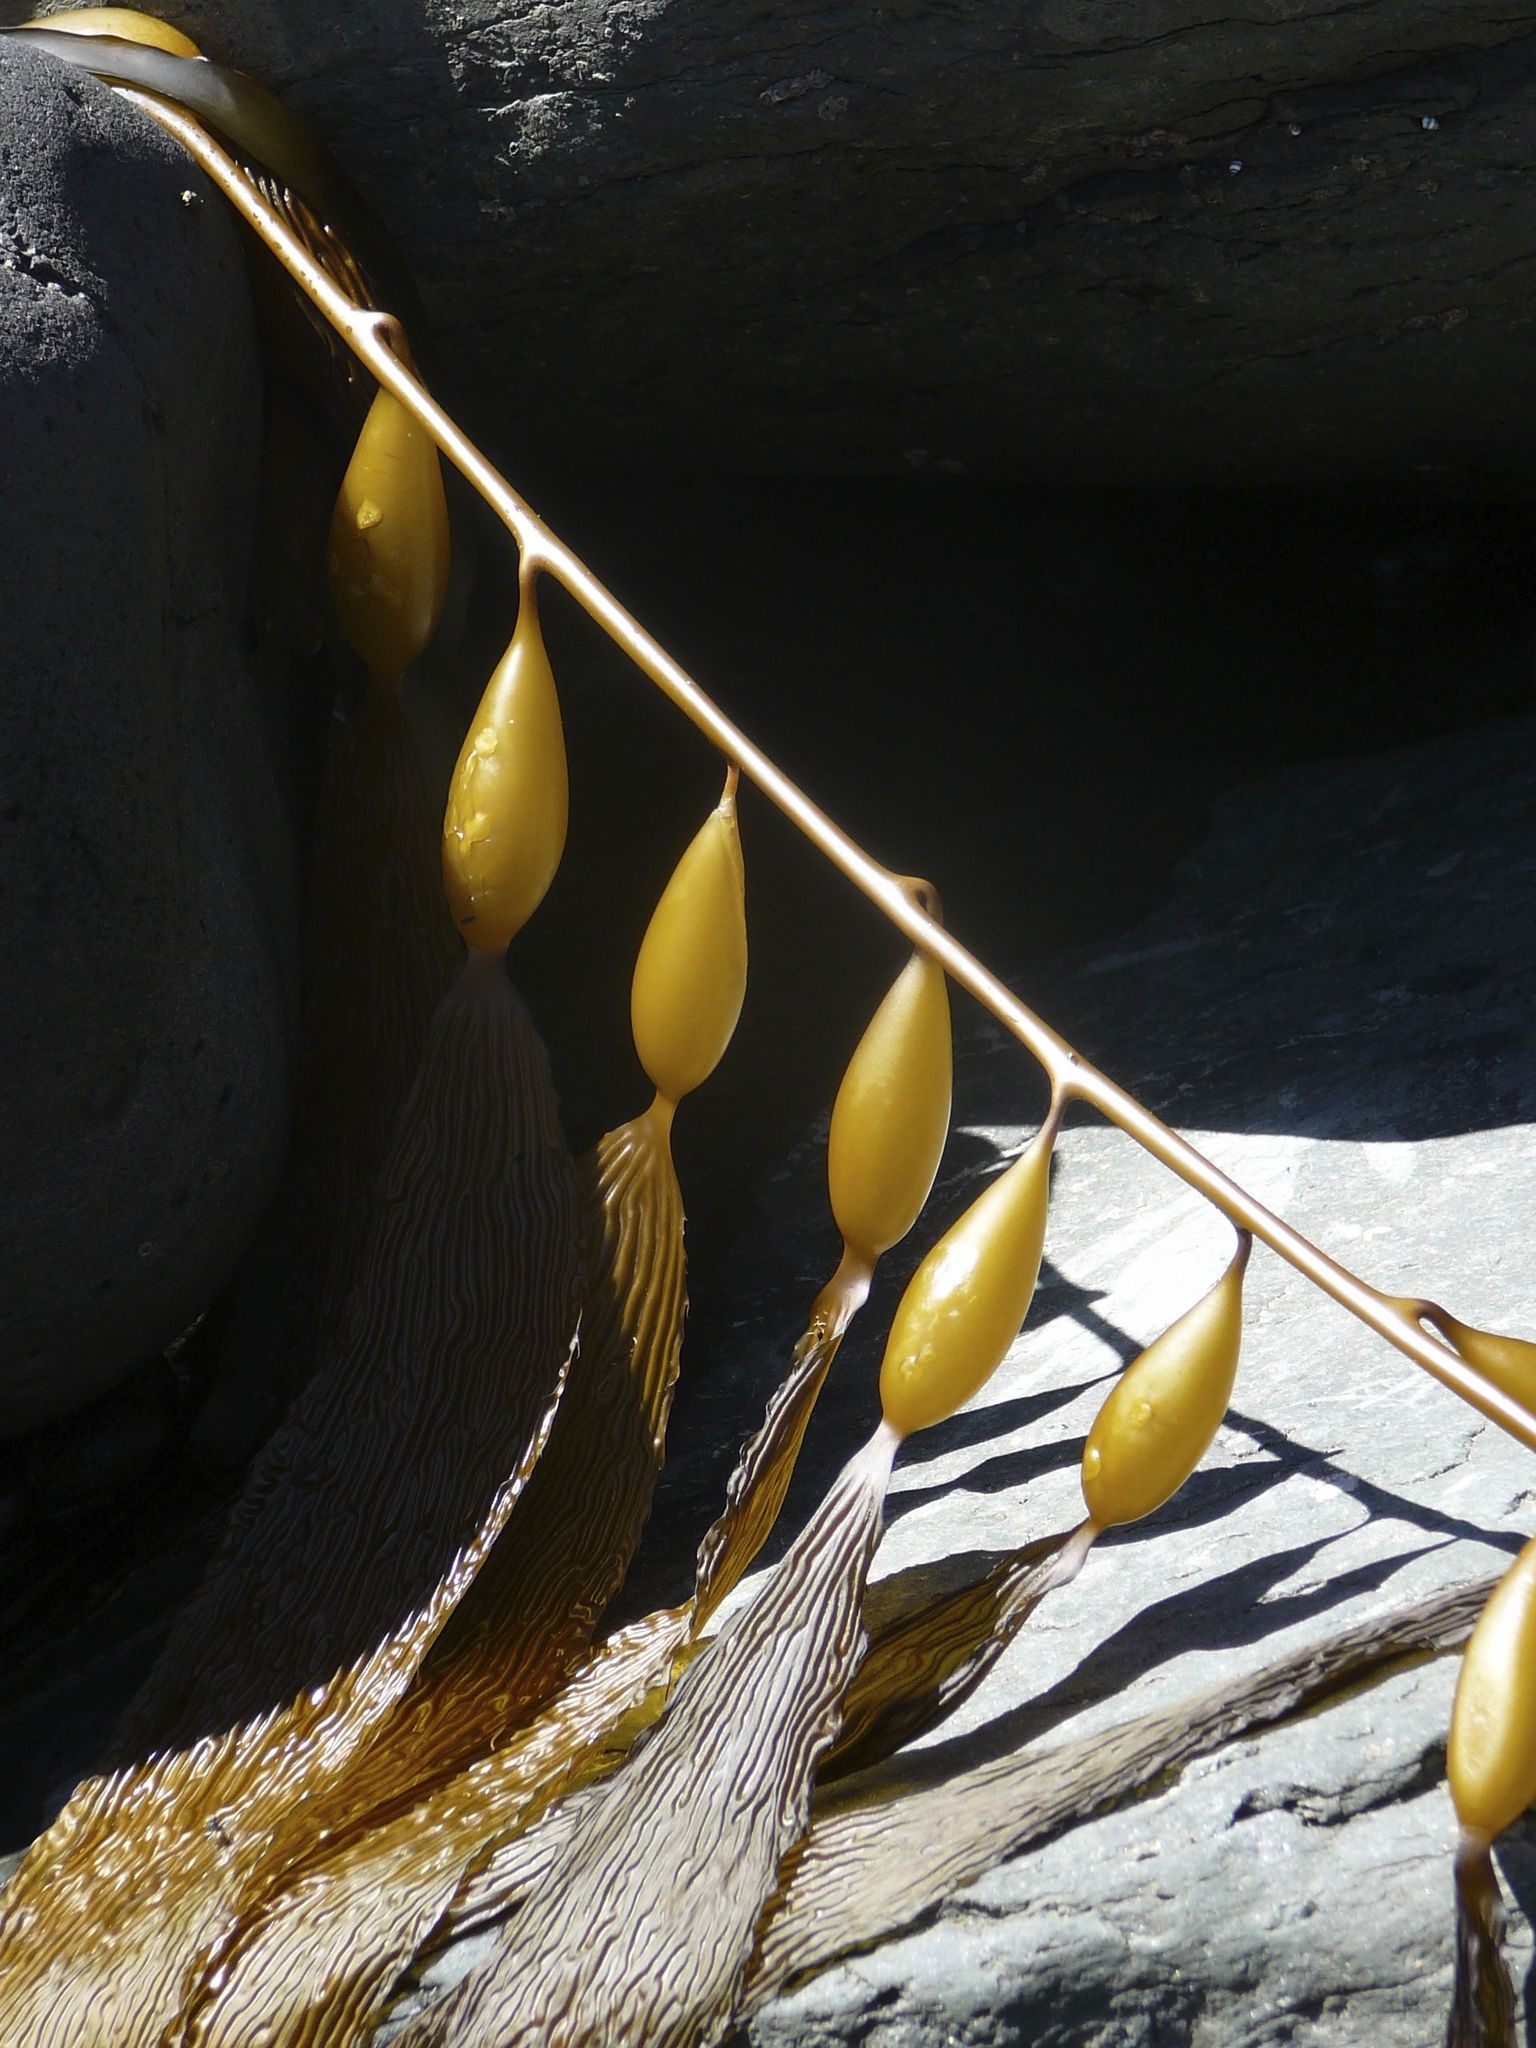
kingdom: Chromista
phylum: Ochrophyta
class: Phaeophyceae
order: Laminariales
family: Laminariaceae
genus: Macrocystis
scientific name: Macrocystis pyrifera
